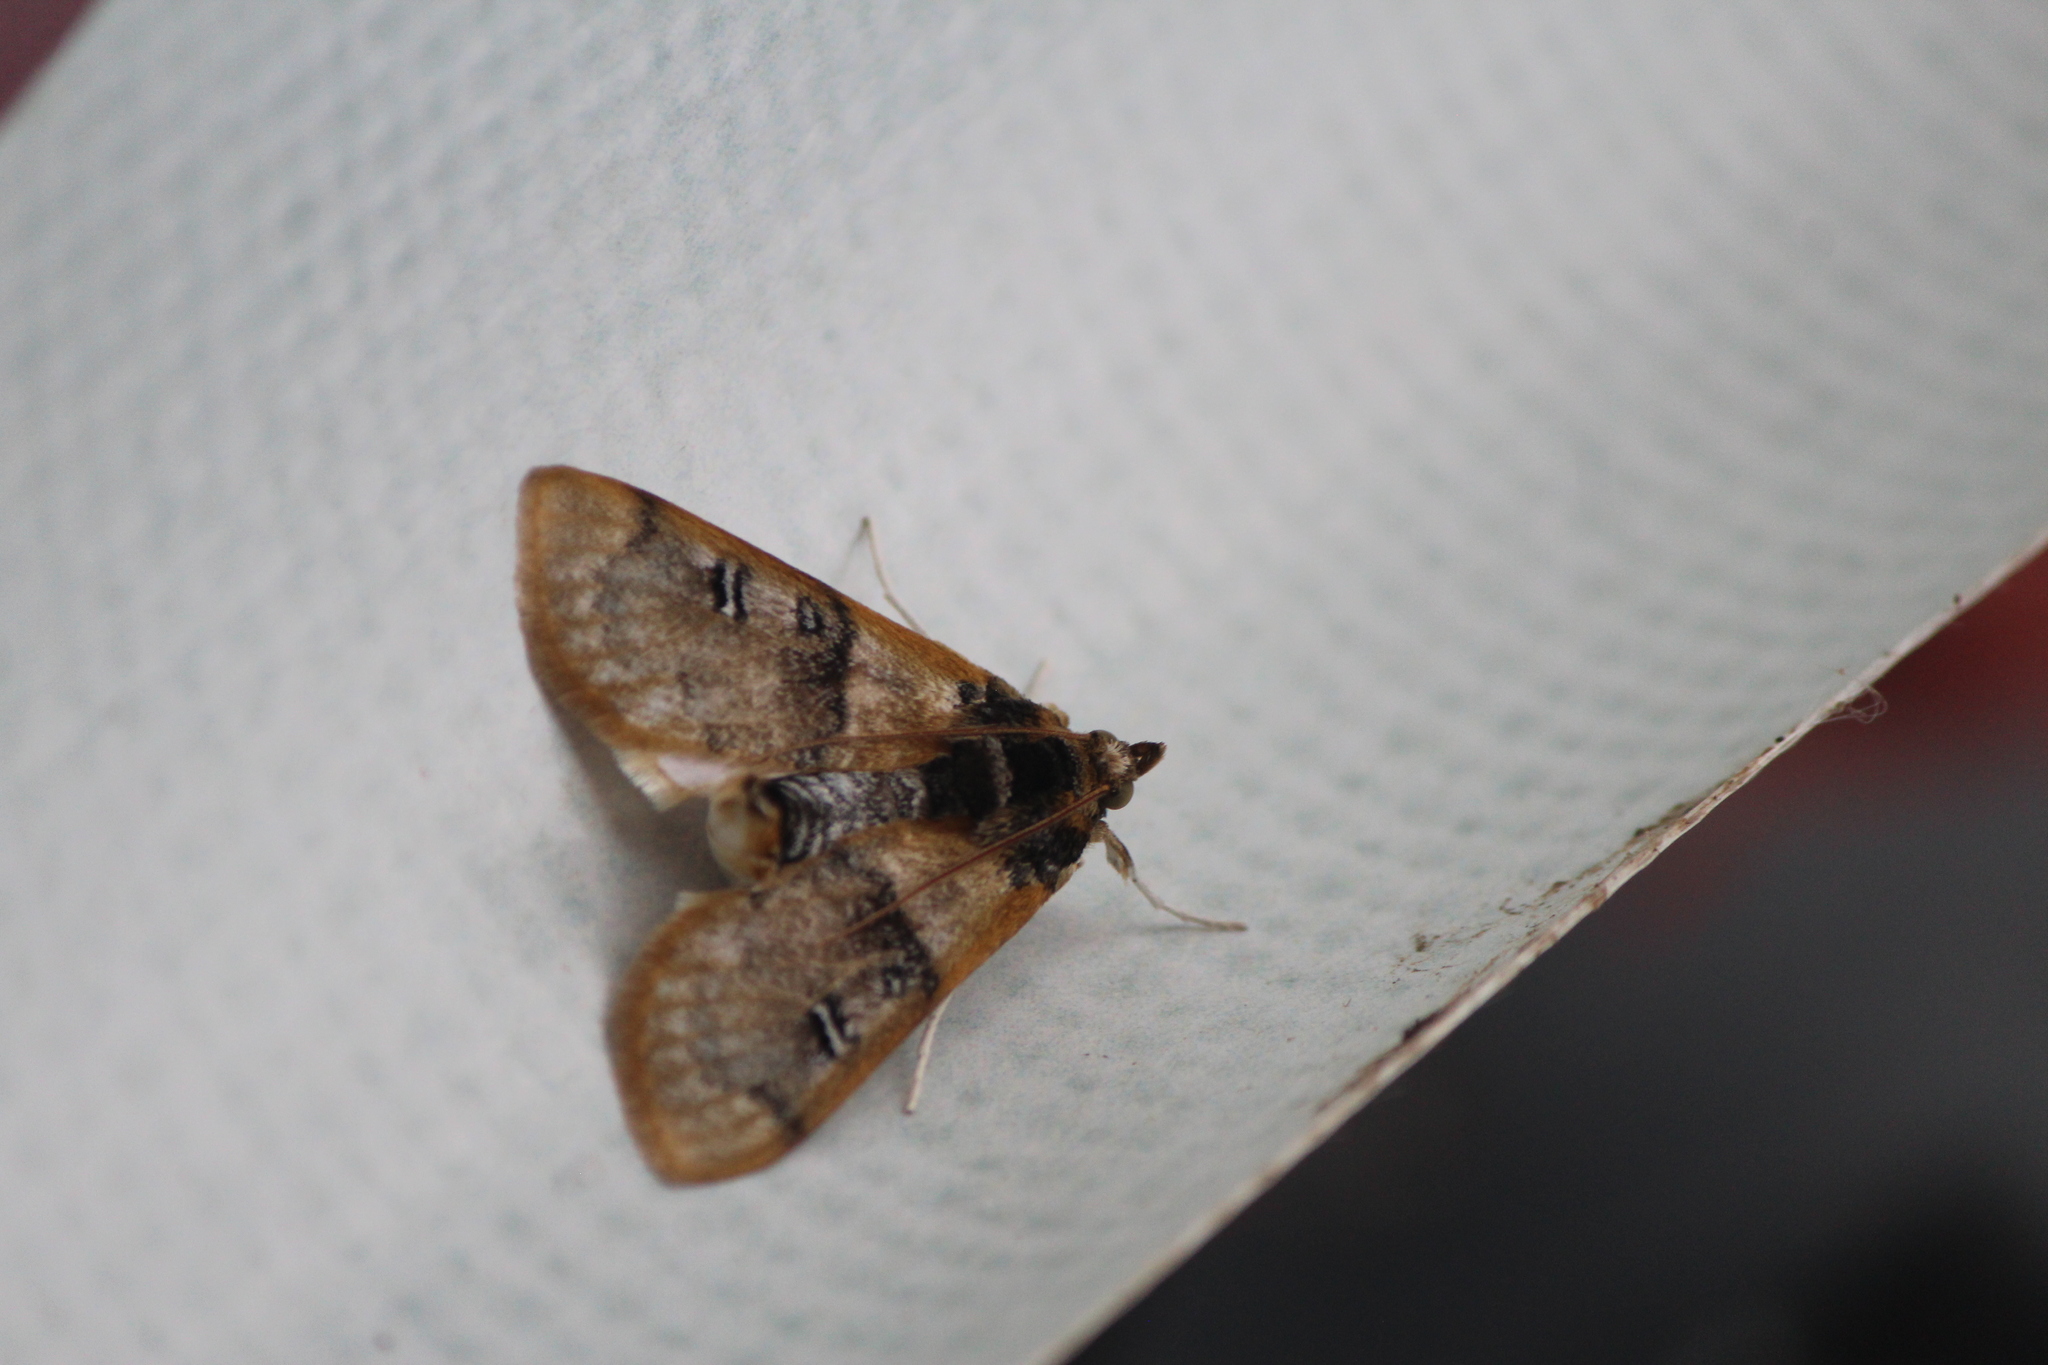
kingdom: Animalia
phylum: Arthropoda
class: Insecta
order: Lepidoptera
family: Crambidae
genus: Laniifera
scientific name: Laniifera cyclades
